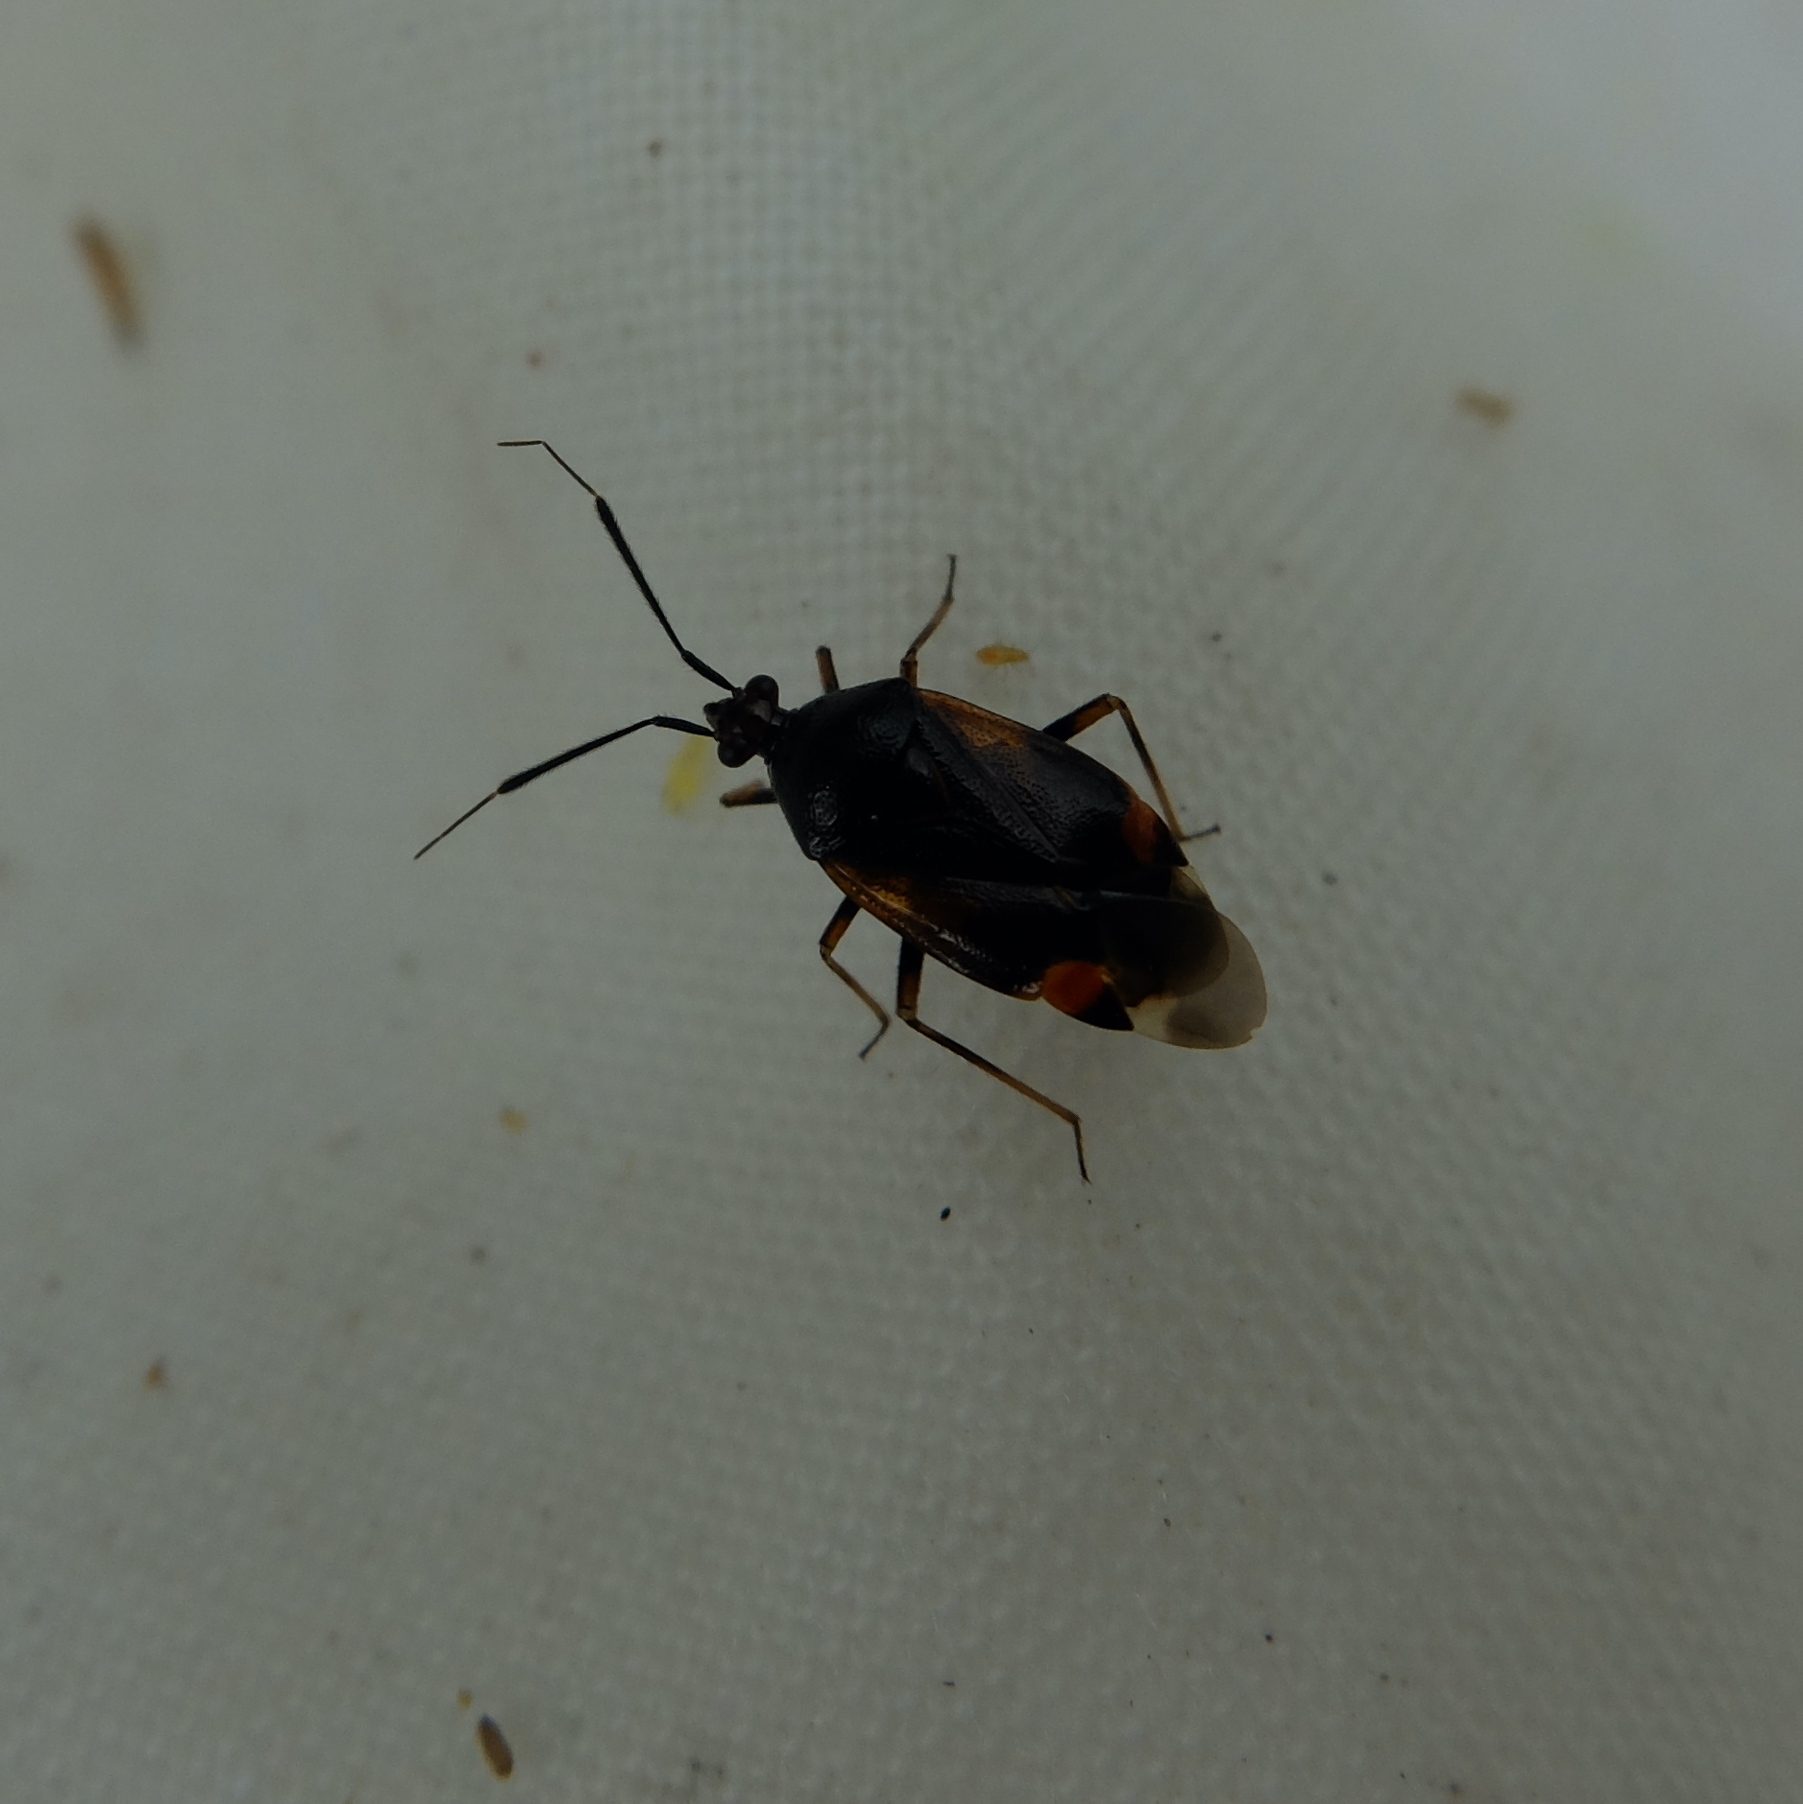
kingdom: Animalia
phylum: Arthropoda
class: Insecta
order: Hemiptera
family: Miridae
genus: Deraeocoris
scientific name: Deraeocoris ruber
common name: Plant bug
